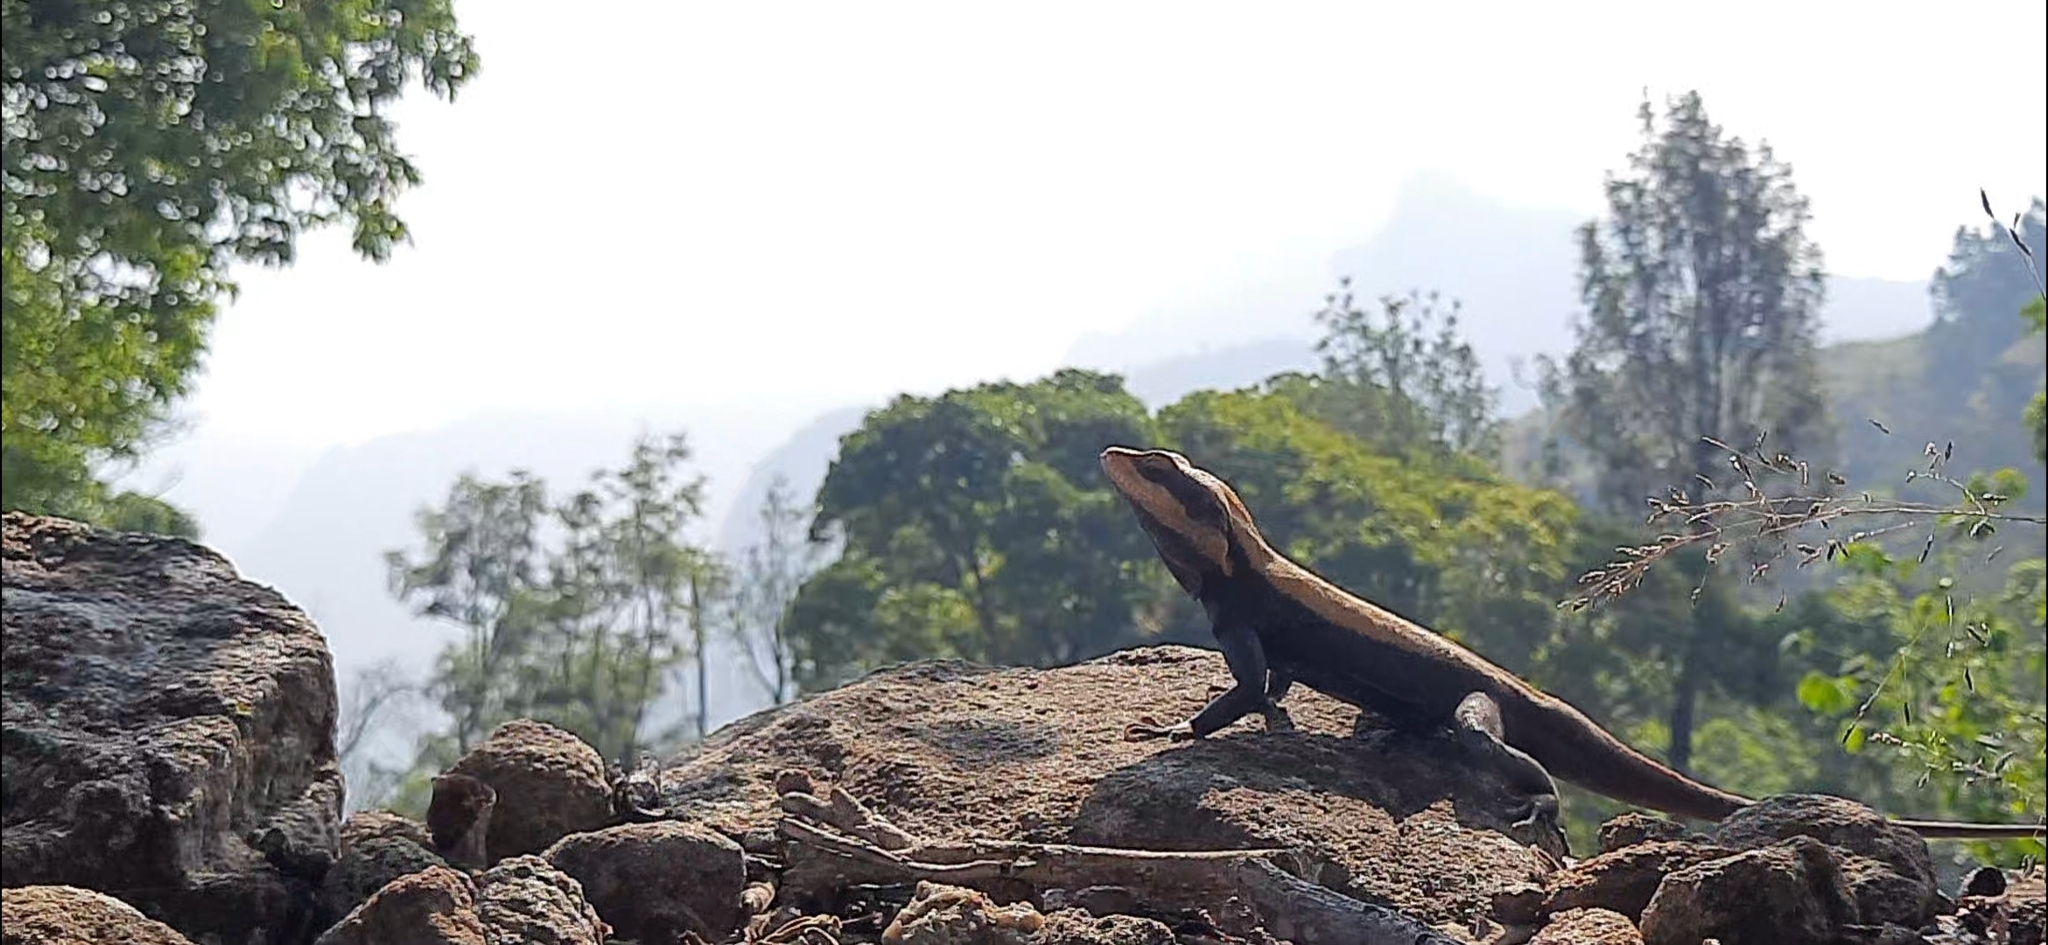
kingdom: Animalia
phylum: Chordata
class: Squamata
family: Agamidae
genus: Psammophilus
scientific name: Psammophilus dorsalis
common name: South indian rock agama
